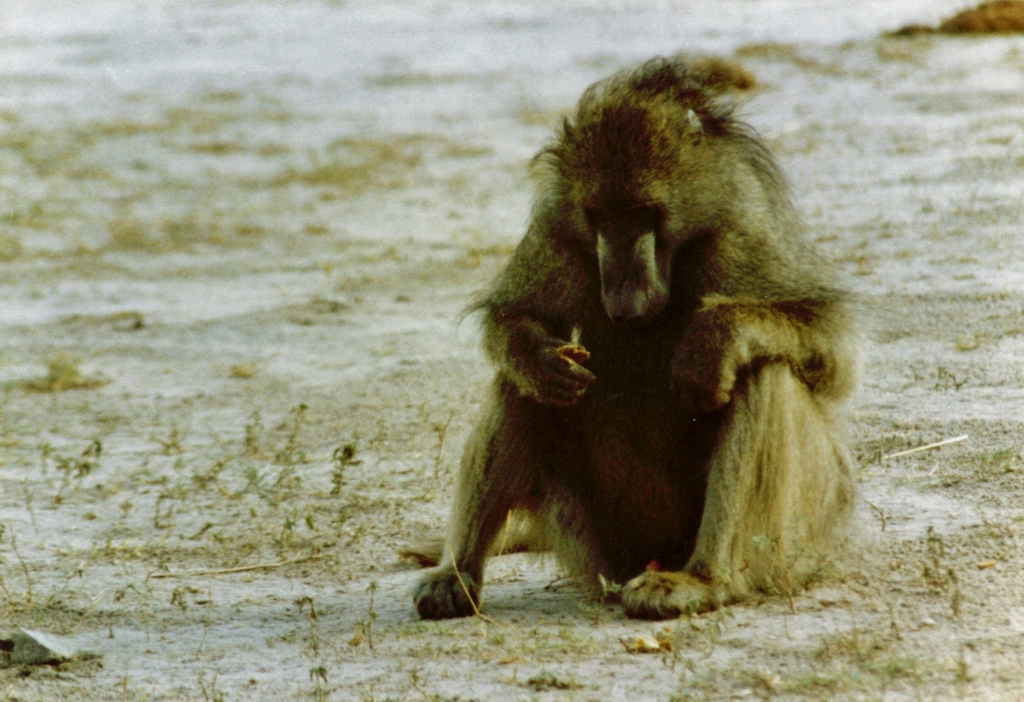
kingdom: Animalia
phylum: Chordata
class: Mammalia
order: Primates
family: Cercopithecidae
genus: Papio
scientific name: Papio ursinus
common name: Chacma baboon
